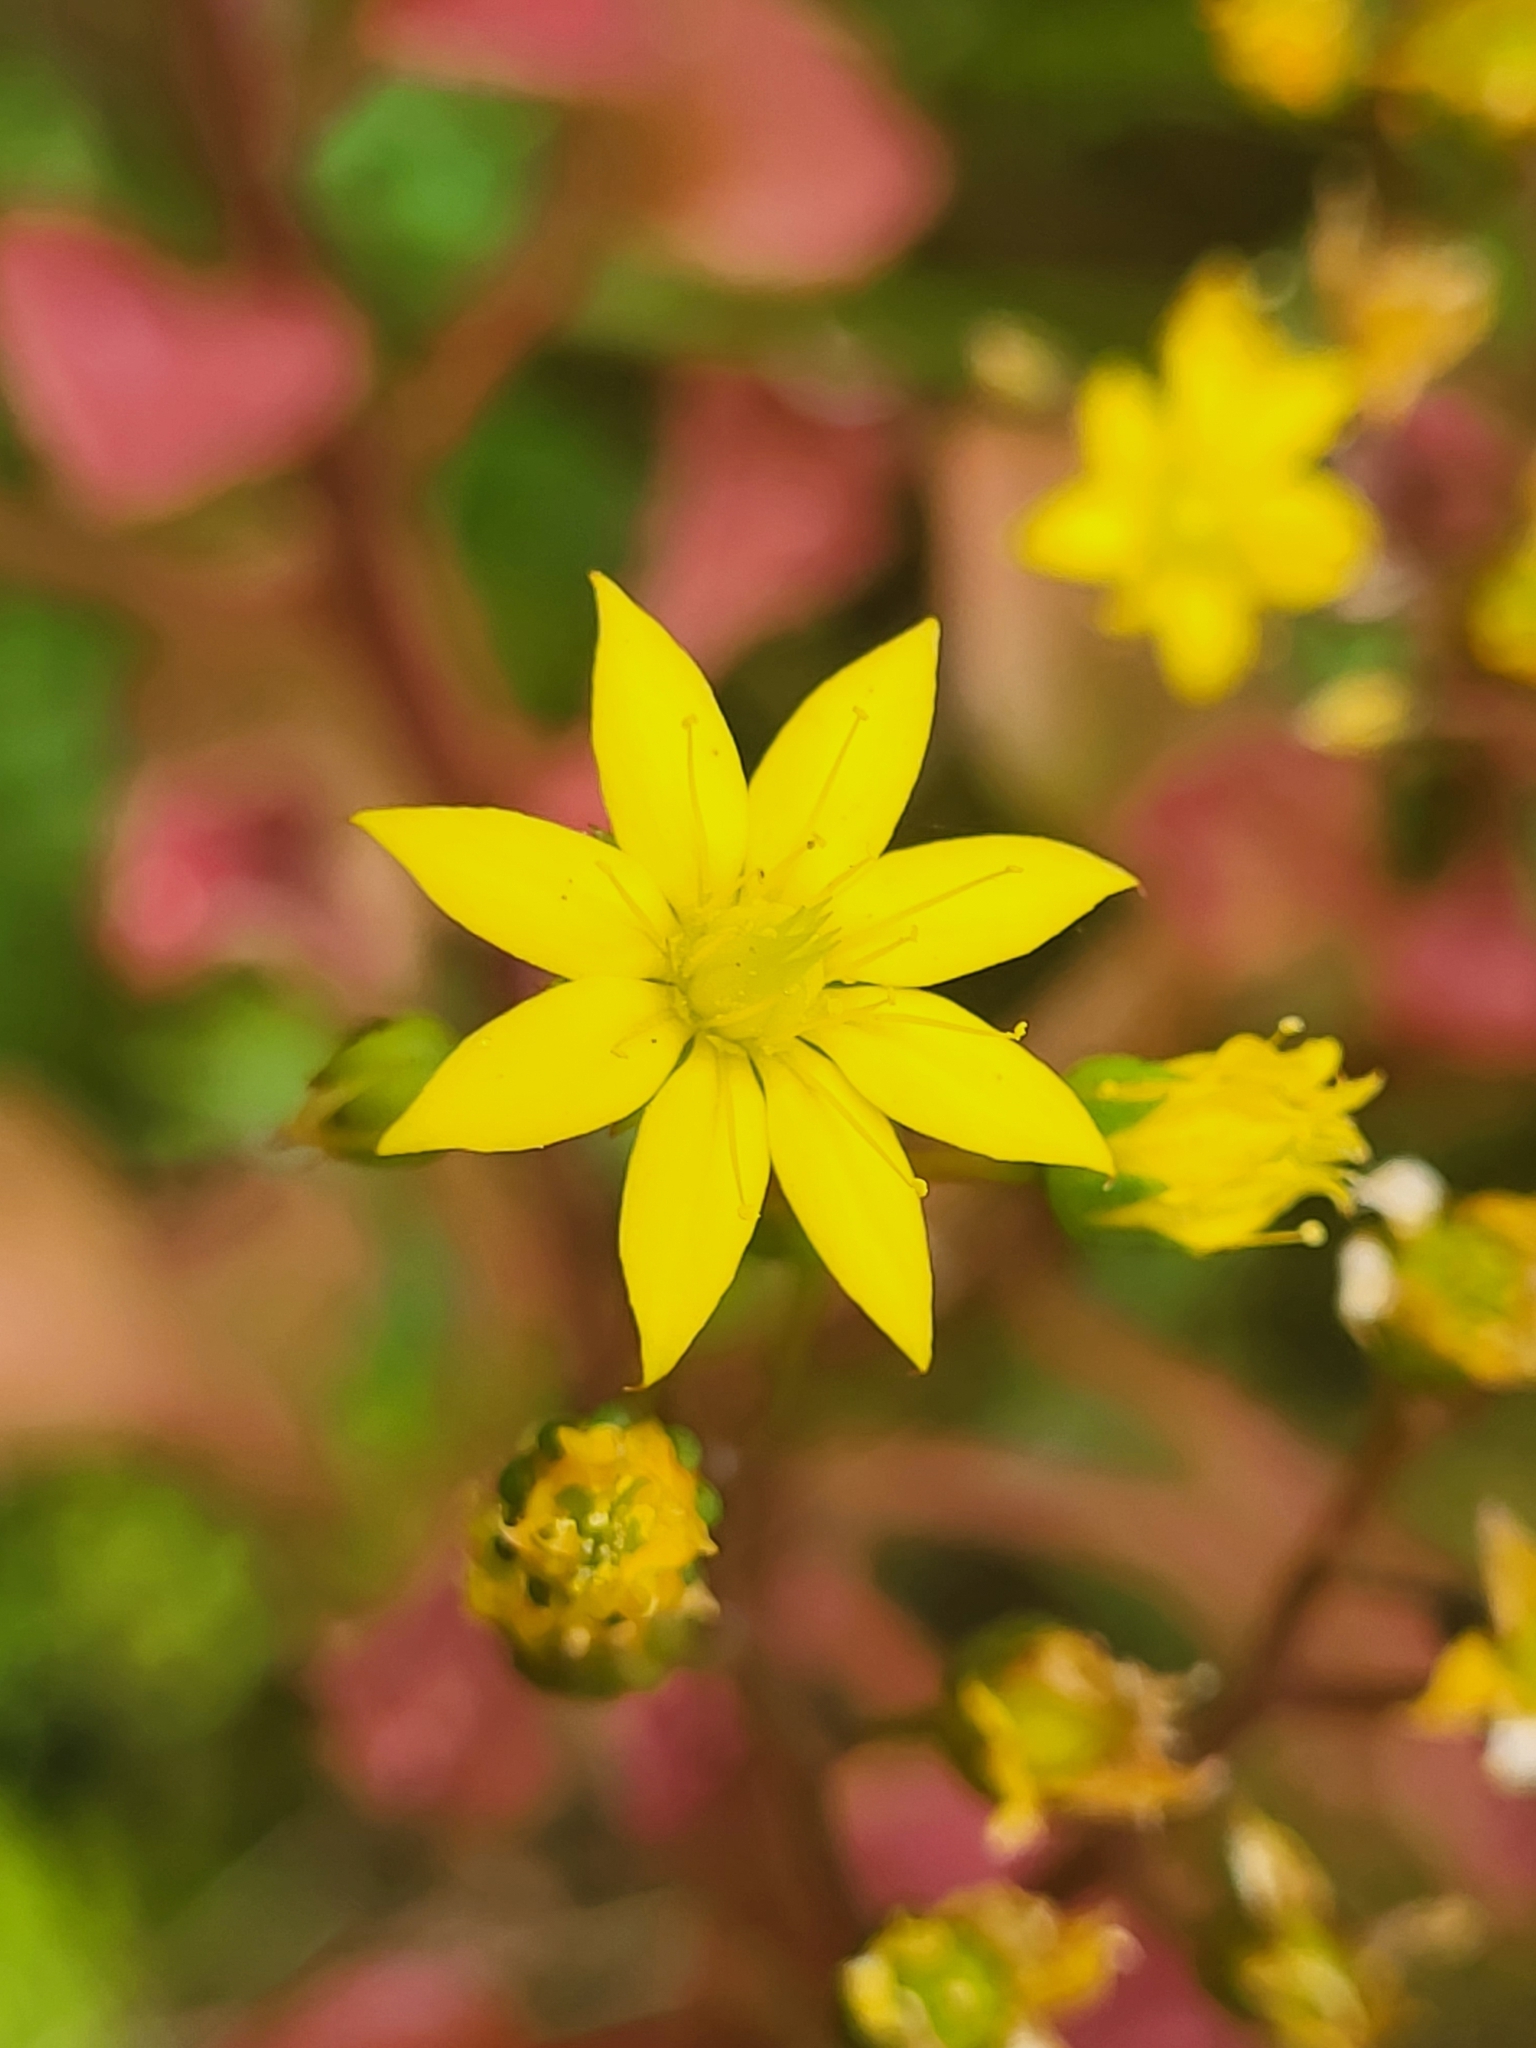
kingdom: Plantae
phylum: Tracheophyta
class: Magnoliopsida
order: Saxifragales
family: Crassulaceae
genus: Aichryson
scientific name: Aichryson divaricatum
